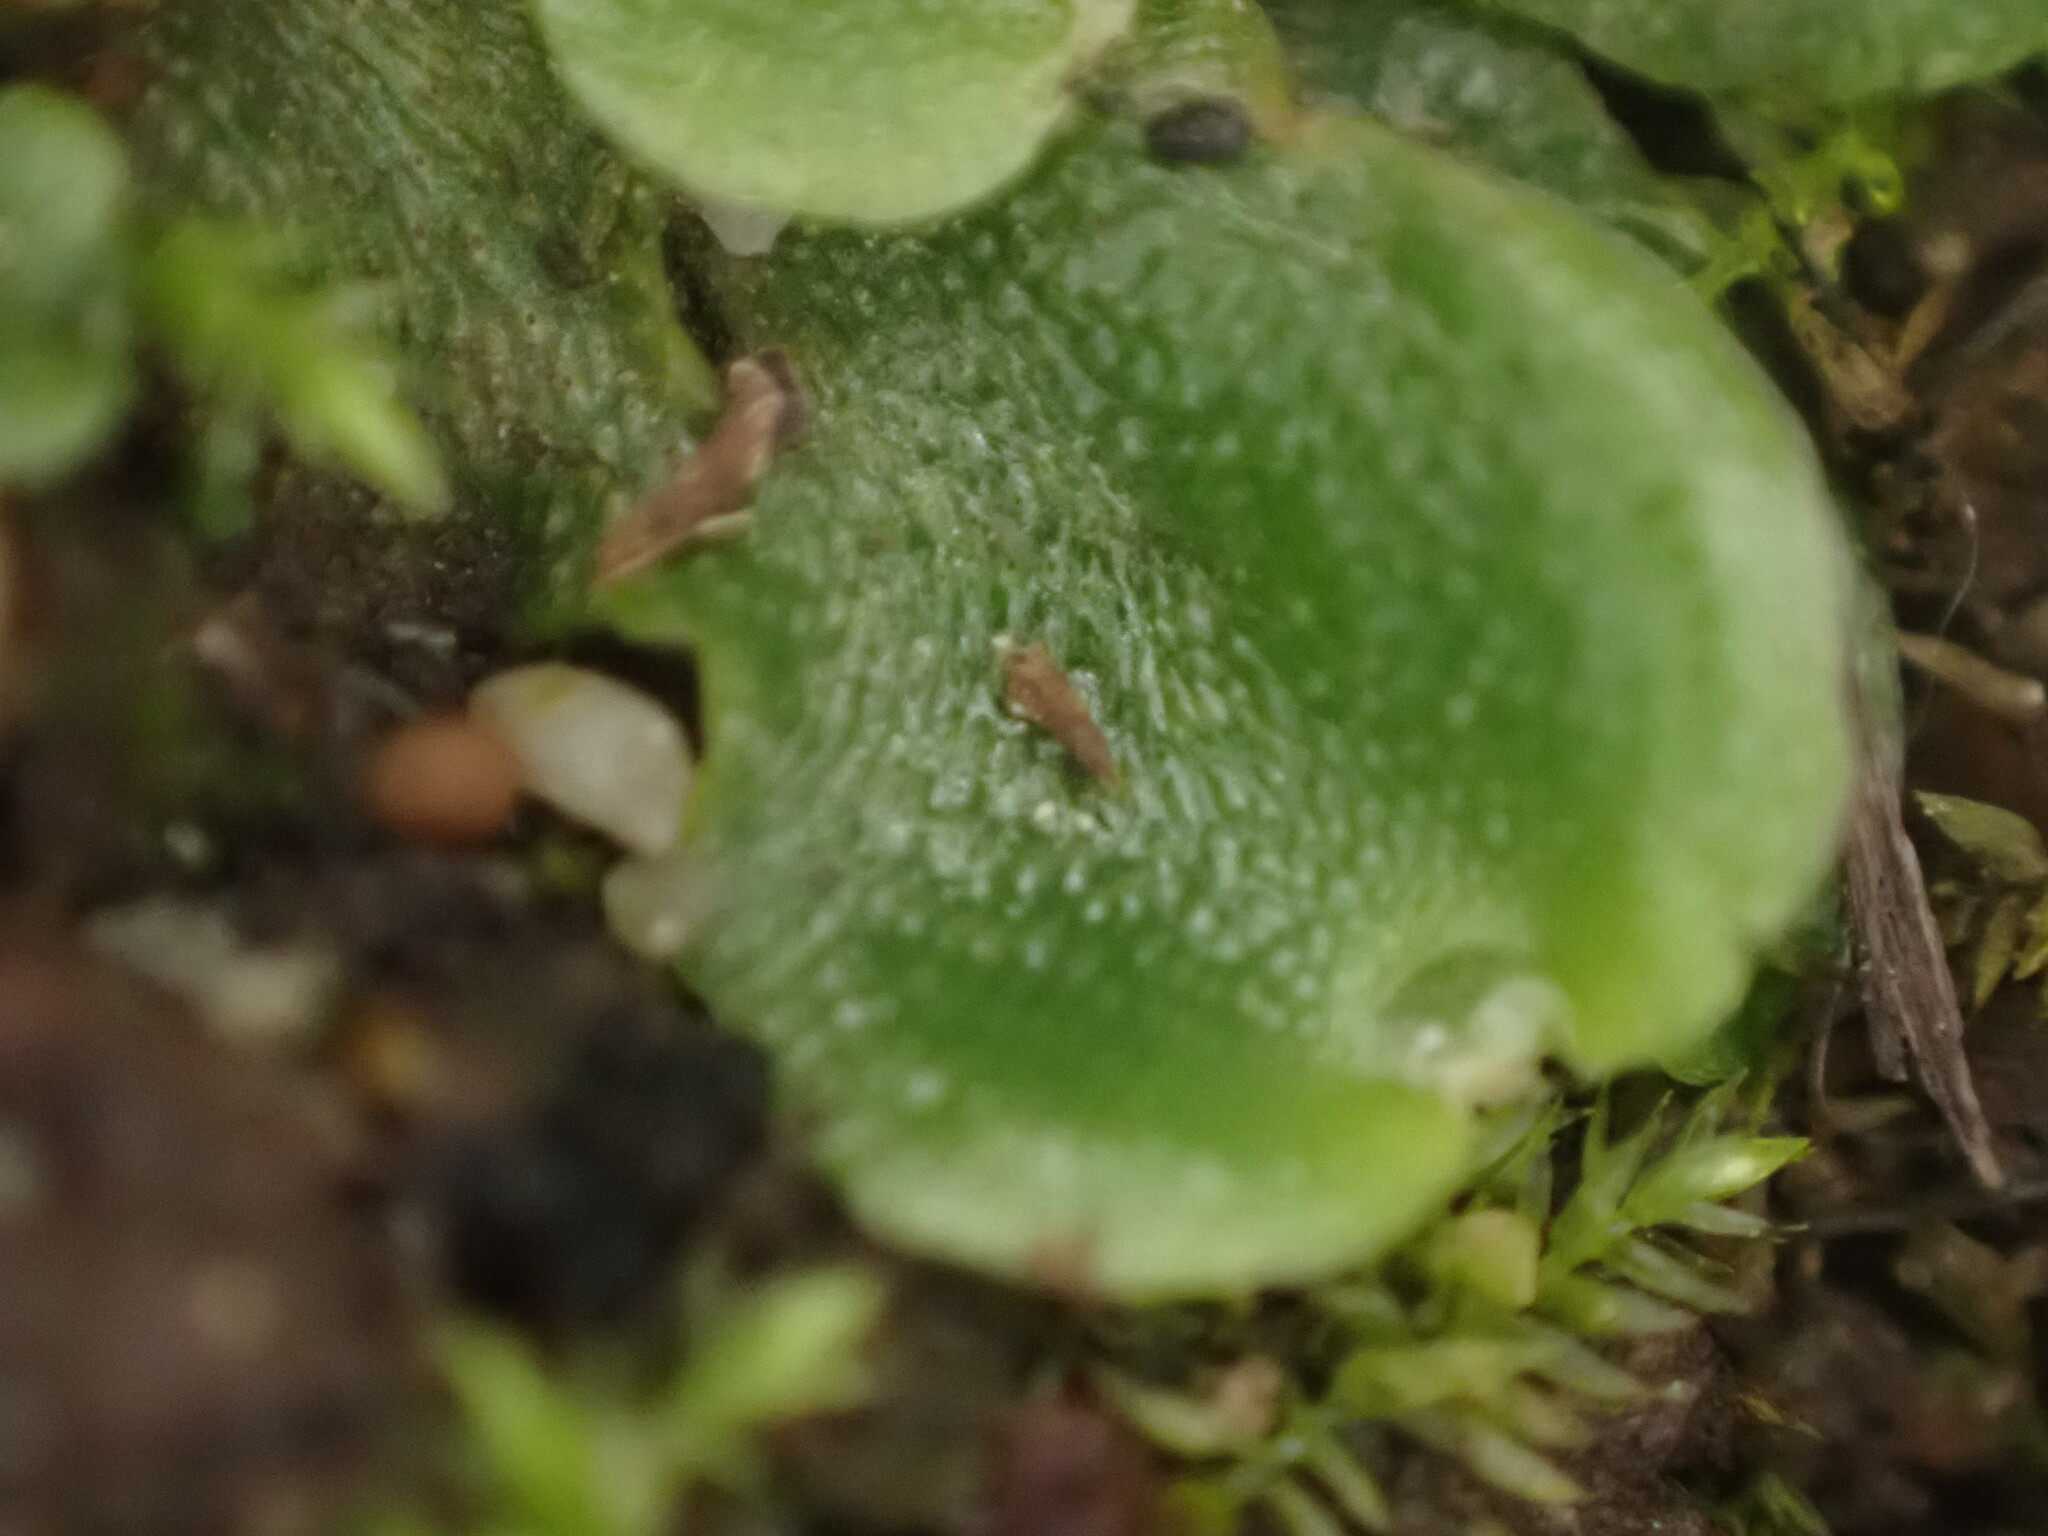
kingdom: Plantae
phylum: Marchantiophyta
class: Marchantiopsida
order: Lunulariales
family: Lunulariaceae
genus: Lunularia
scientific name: Lunularia cruciata
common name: Crescent-cup liverwort
